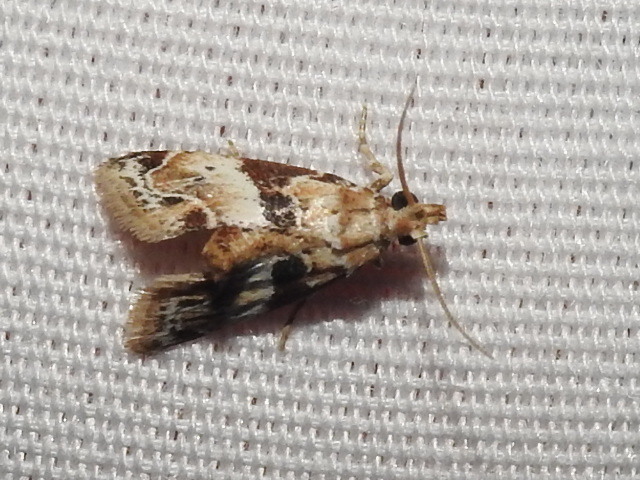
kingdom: Animalia
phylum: Arthropoda
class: Insecta
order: Lepidoptera
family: Pyralidae
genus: Neodavisia
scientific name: Neodavisia melusina
